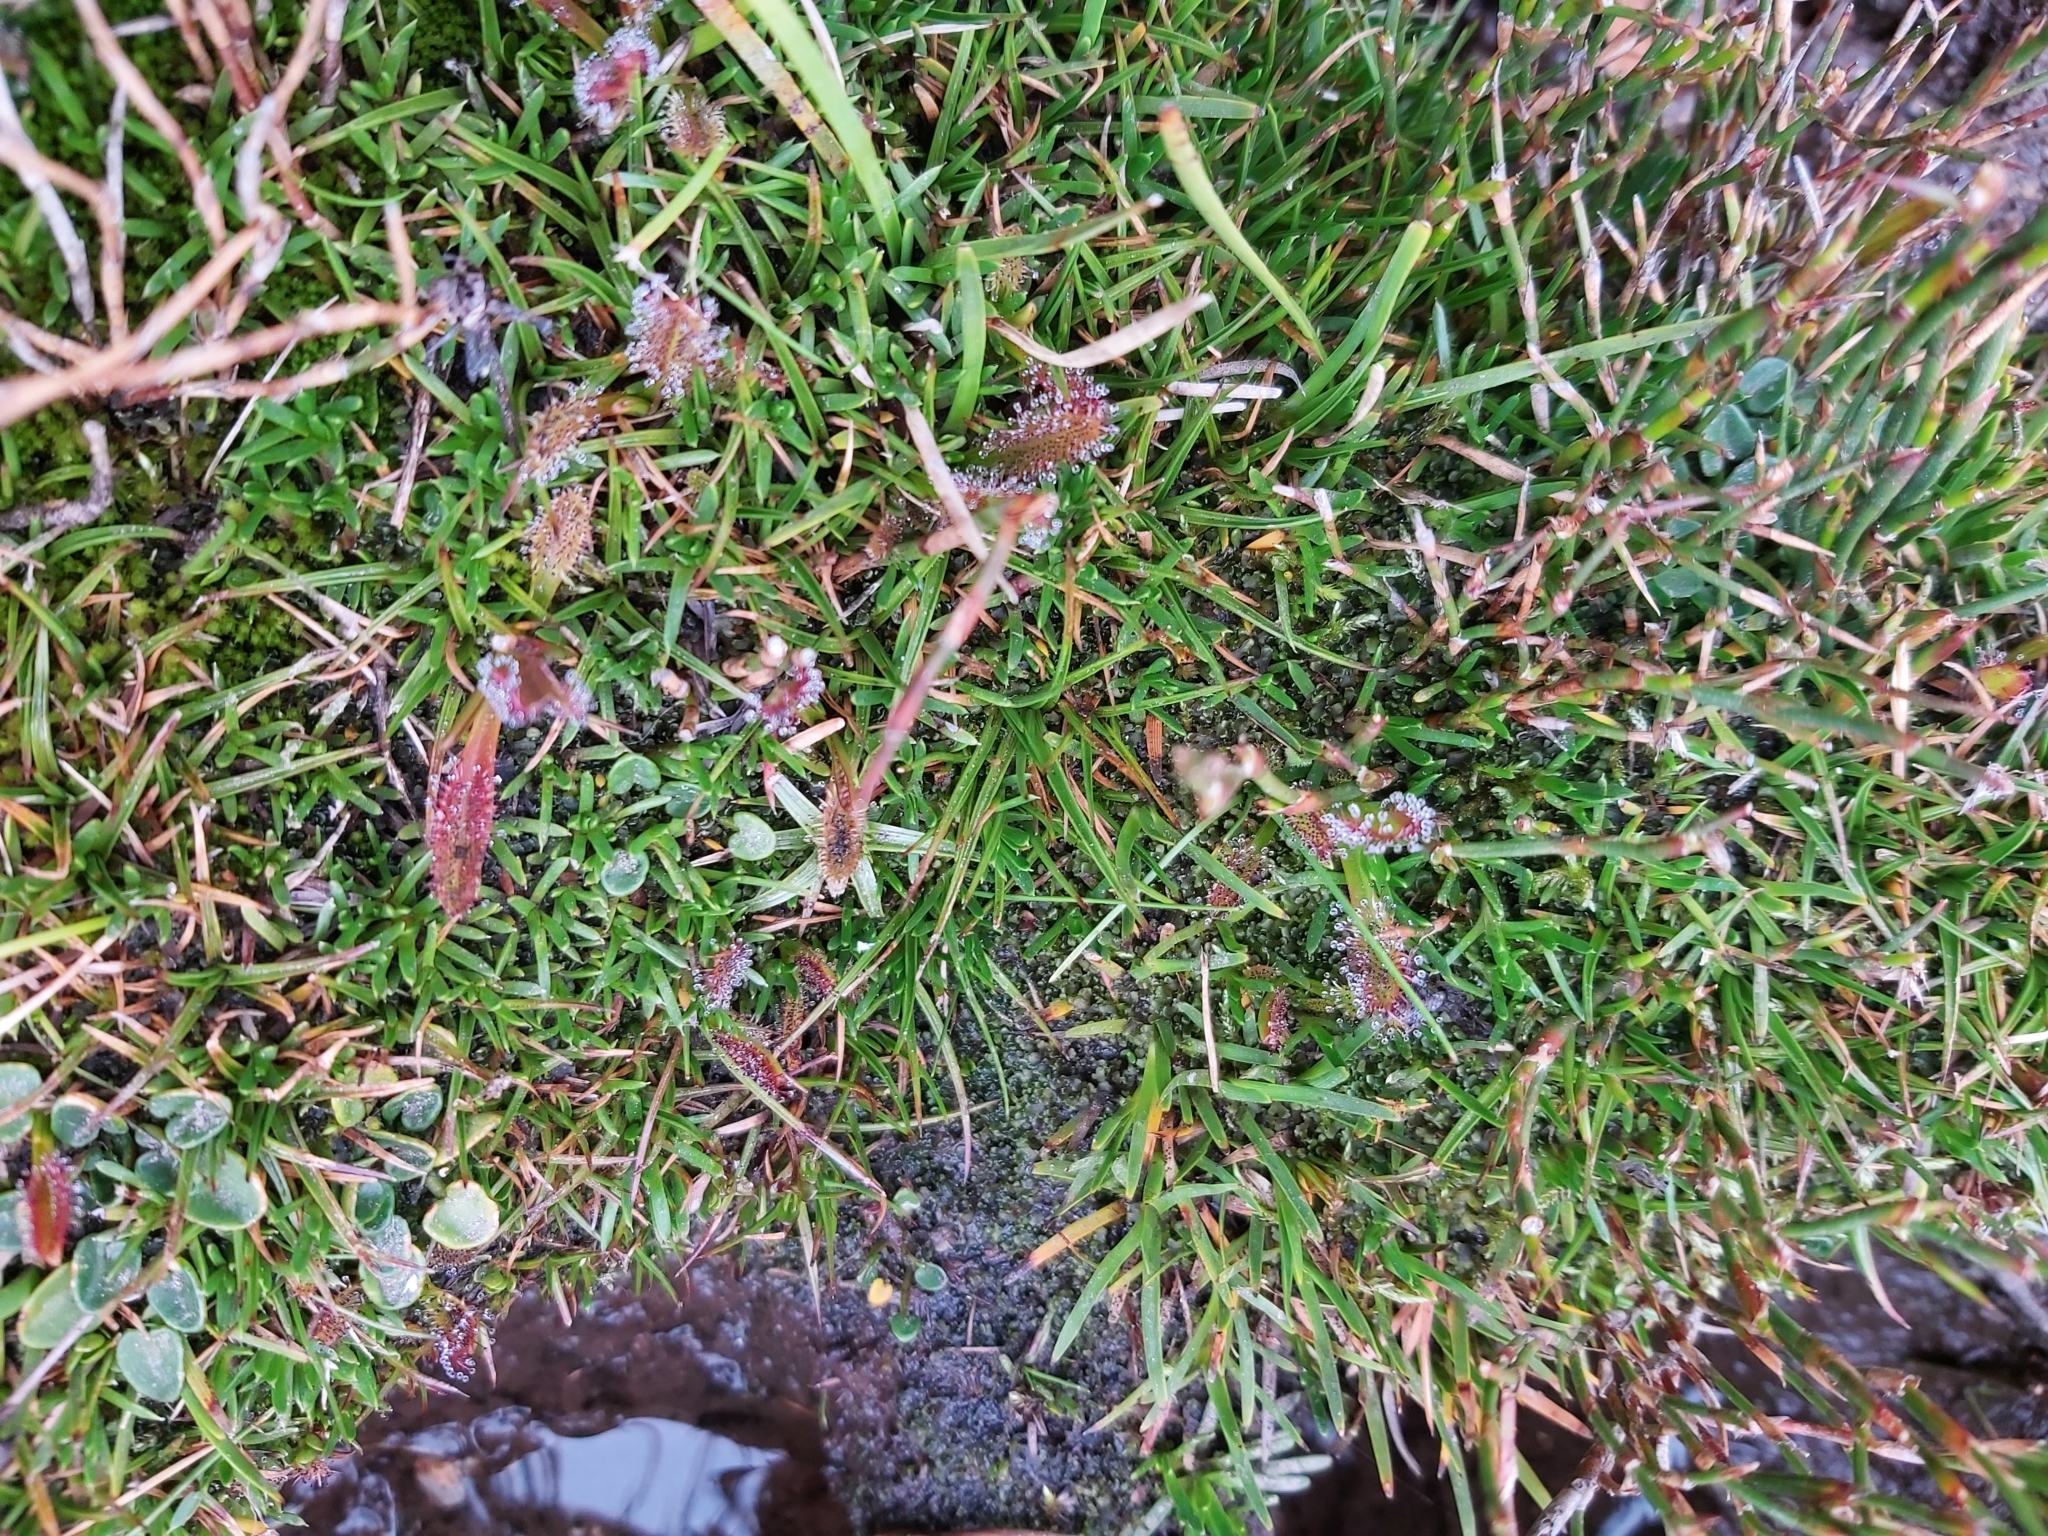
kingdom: Plantae
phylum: Tracheophyta
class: Magnoliopsida
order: Caryophyllales
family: Droseraceae
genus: Drosera
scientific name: Drosera arcturi
